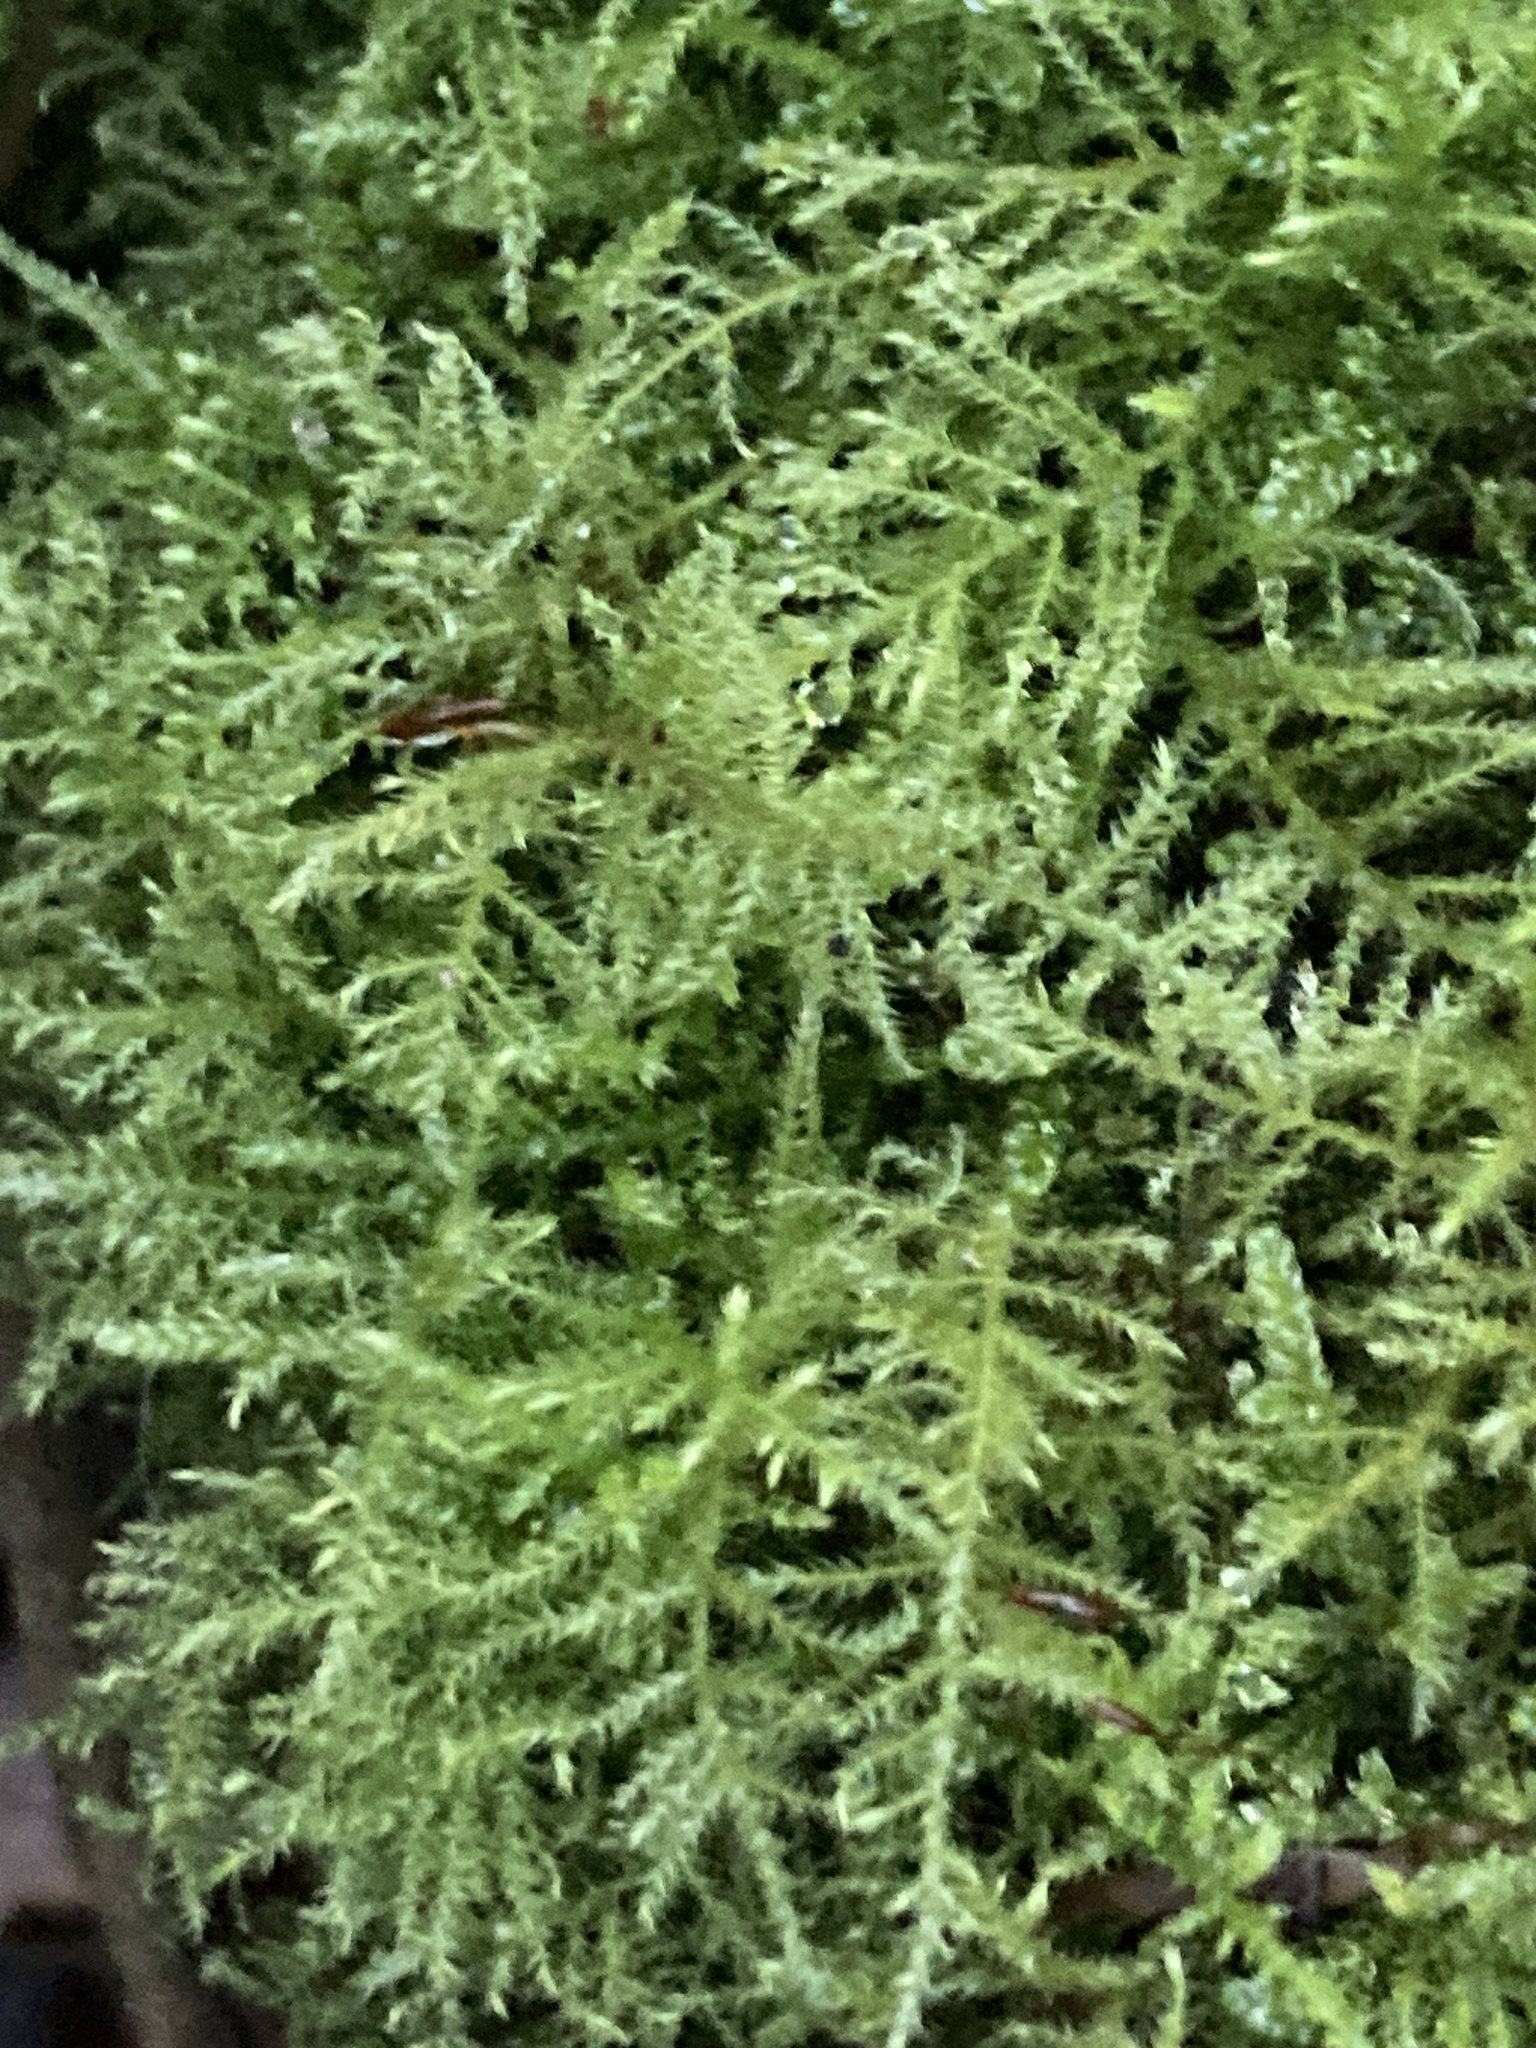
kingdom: Plantae
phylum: Bryophyta
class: Bryopsida
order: Hypnales
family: Brachytheciaceae
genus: Kindbergia
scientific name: Kindbergia praelonga
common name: Slender beaked moss
